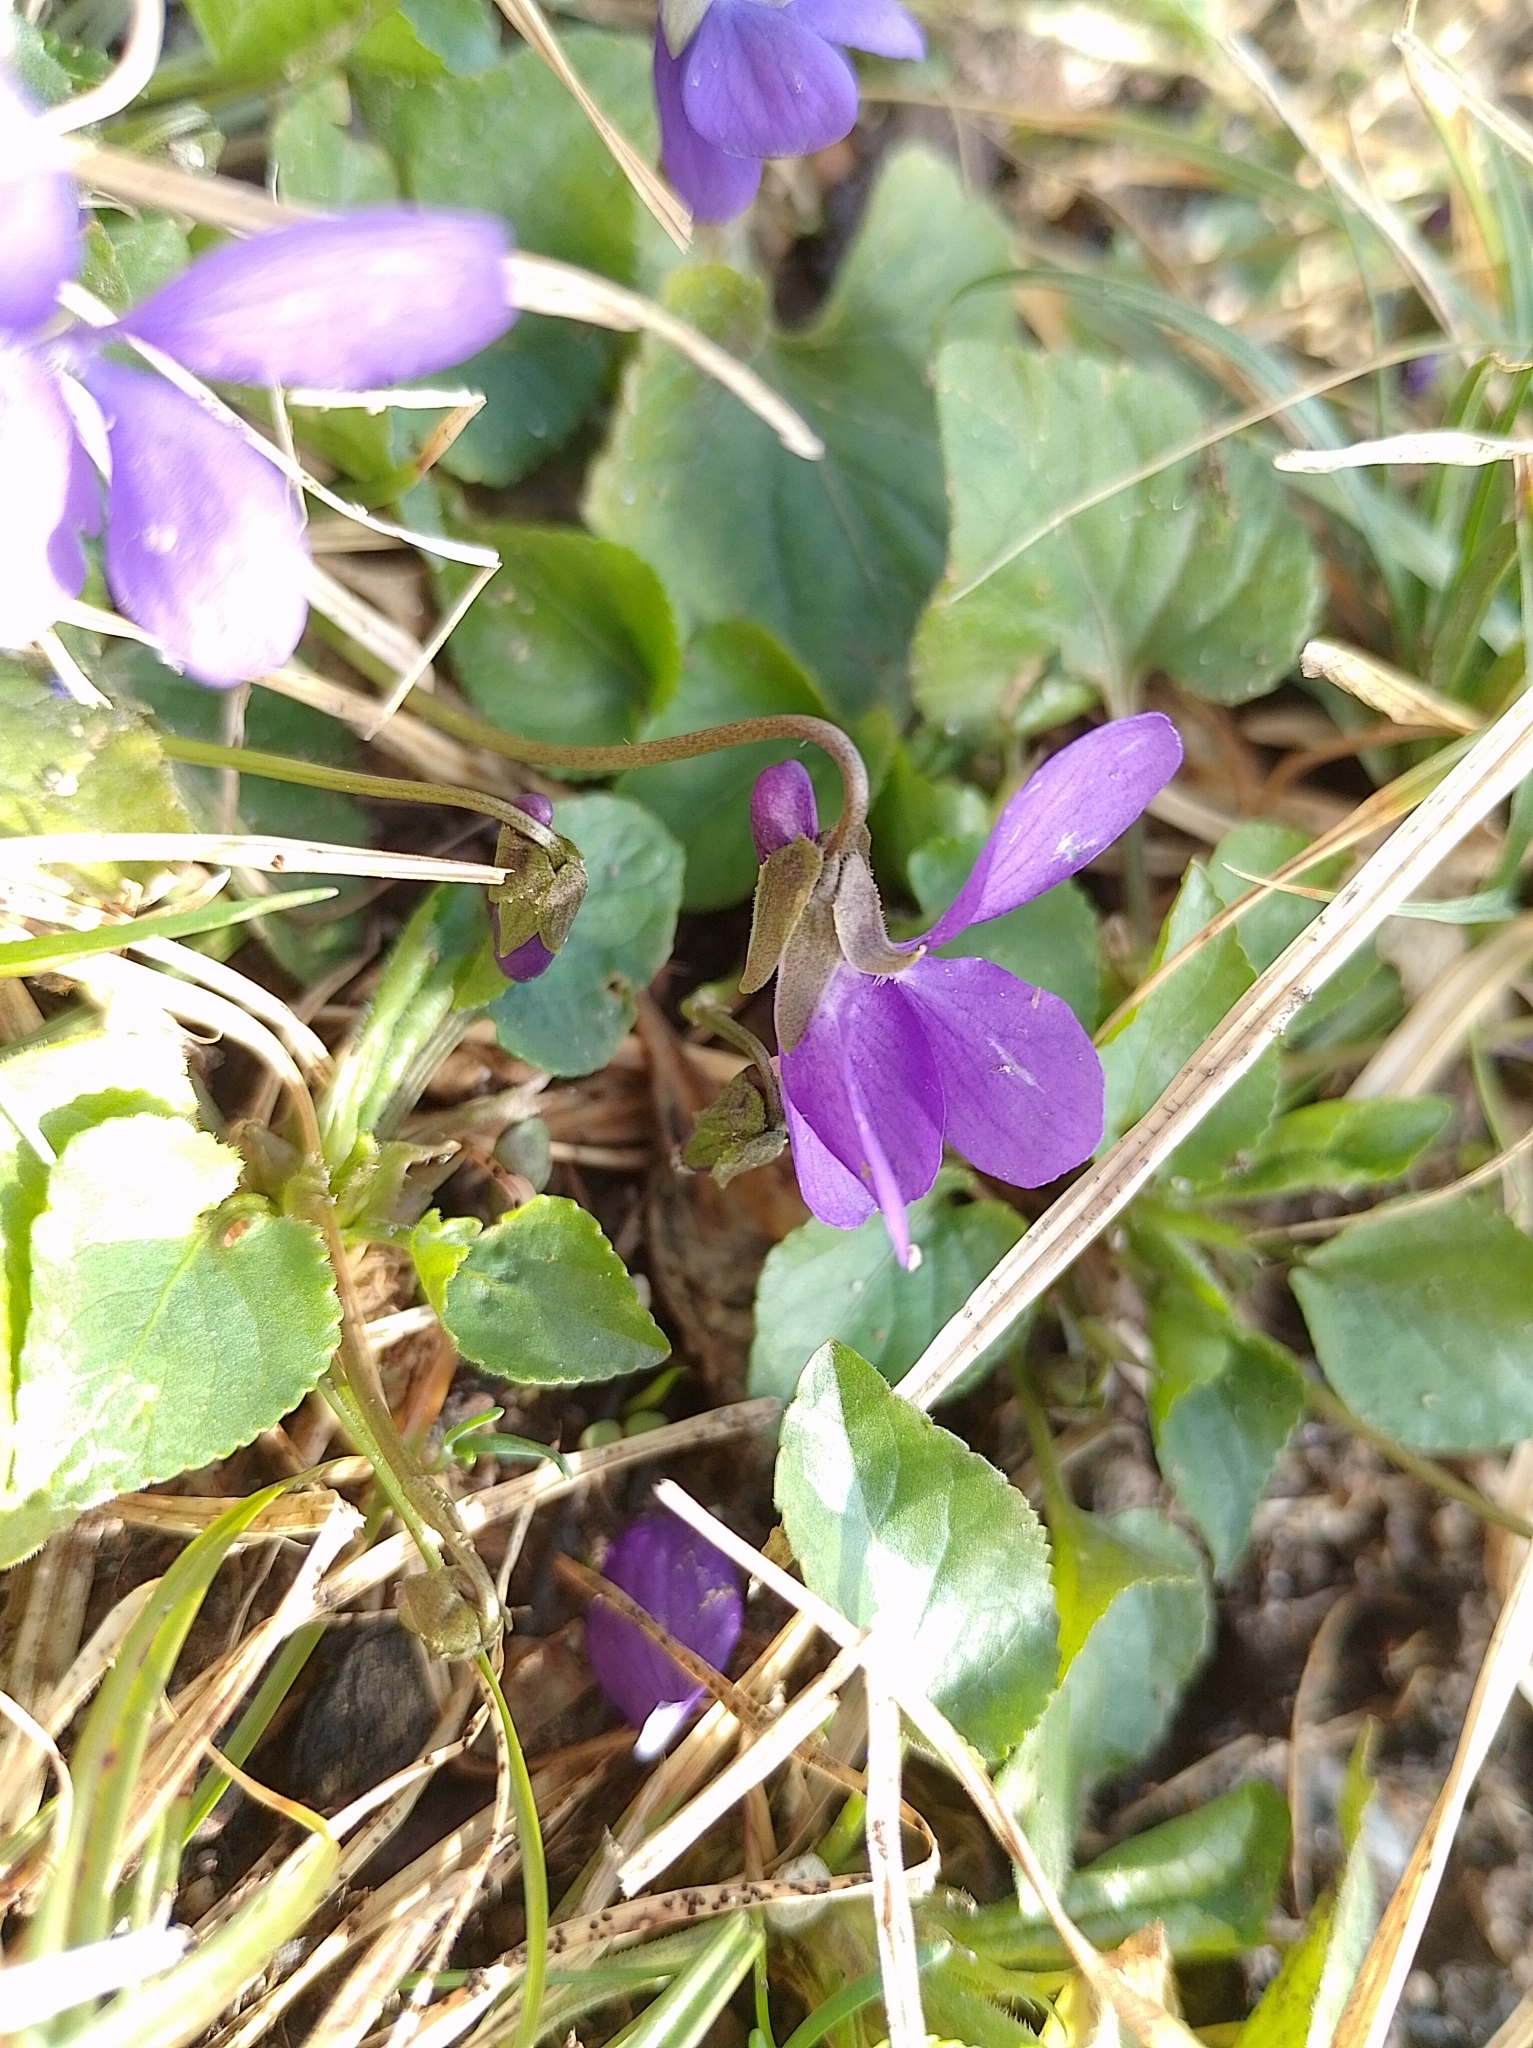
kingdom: Plantae
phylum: Tracheophyta
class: Magnoliopsida
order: Malpighiales
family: Violaceae
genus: Viola
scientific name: Viola odorata
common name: Sweet violet
